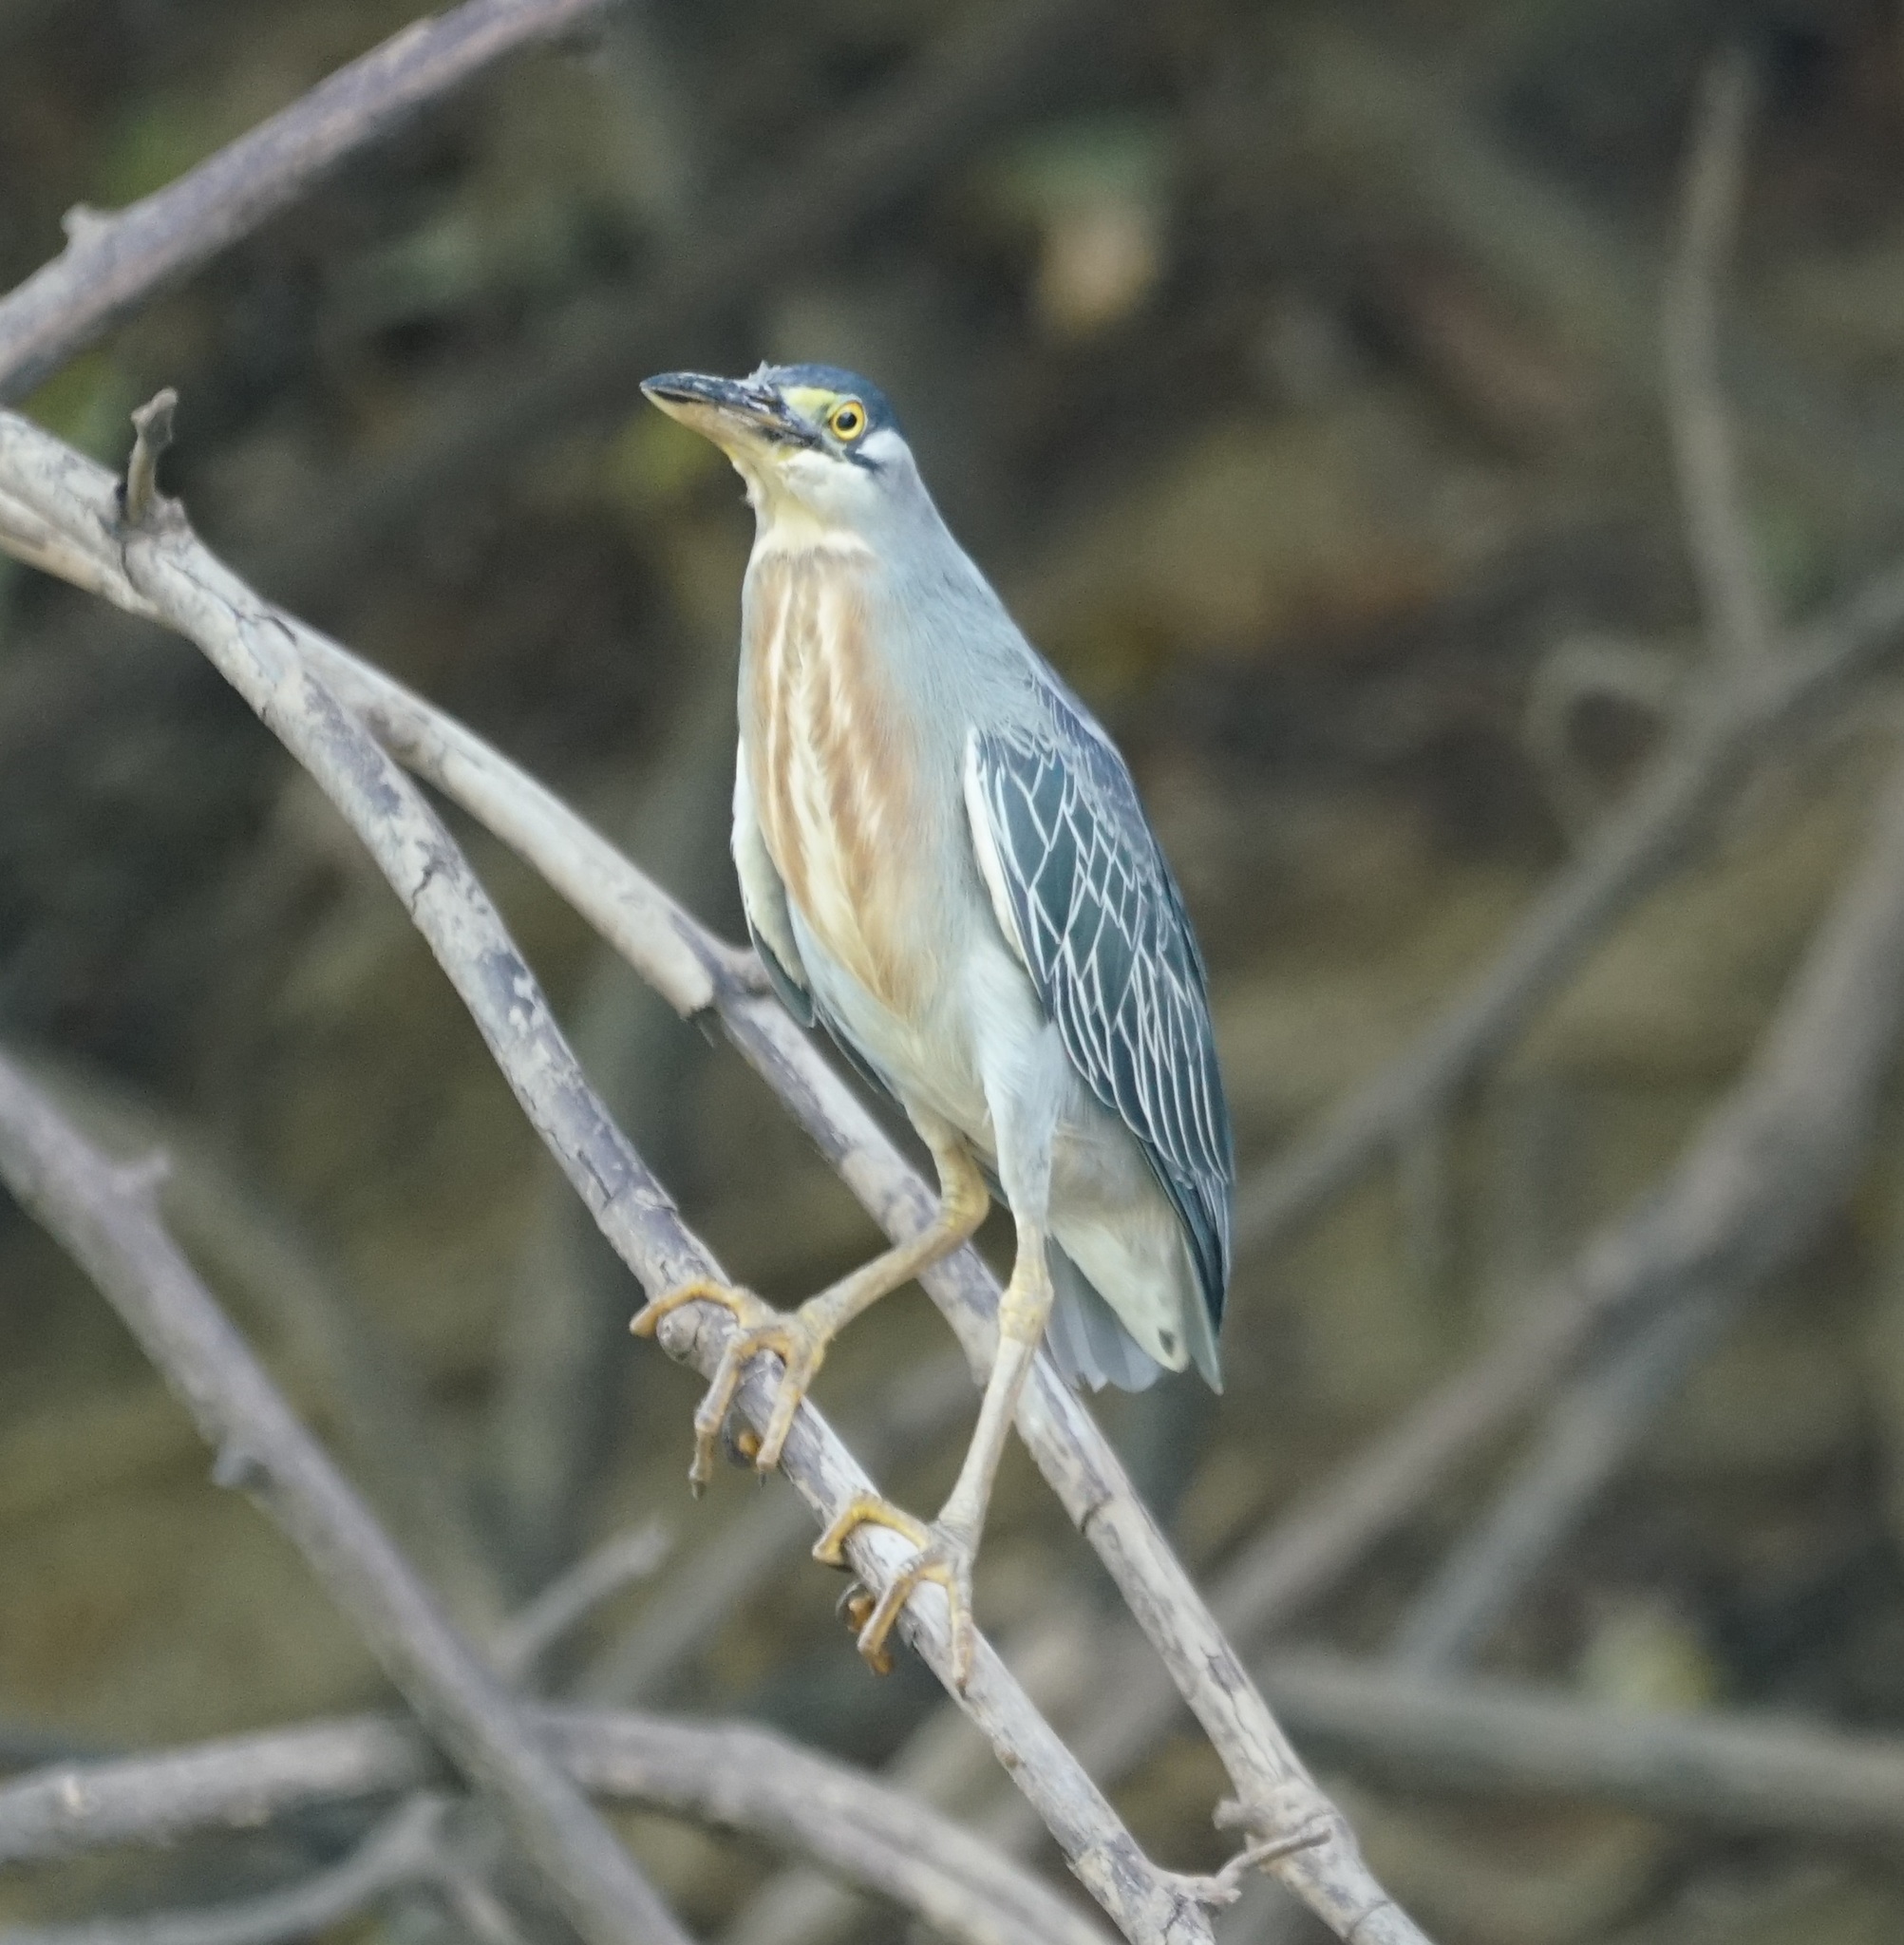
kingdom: Animalia
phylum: Chordata
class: Aves
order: Pelecaniformes
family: Ardeidae
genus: Butorides
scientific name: Butorides striata
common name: Striated heron
